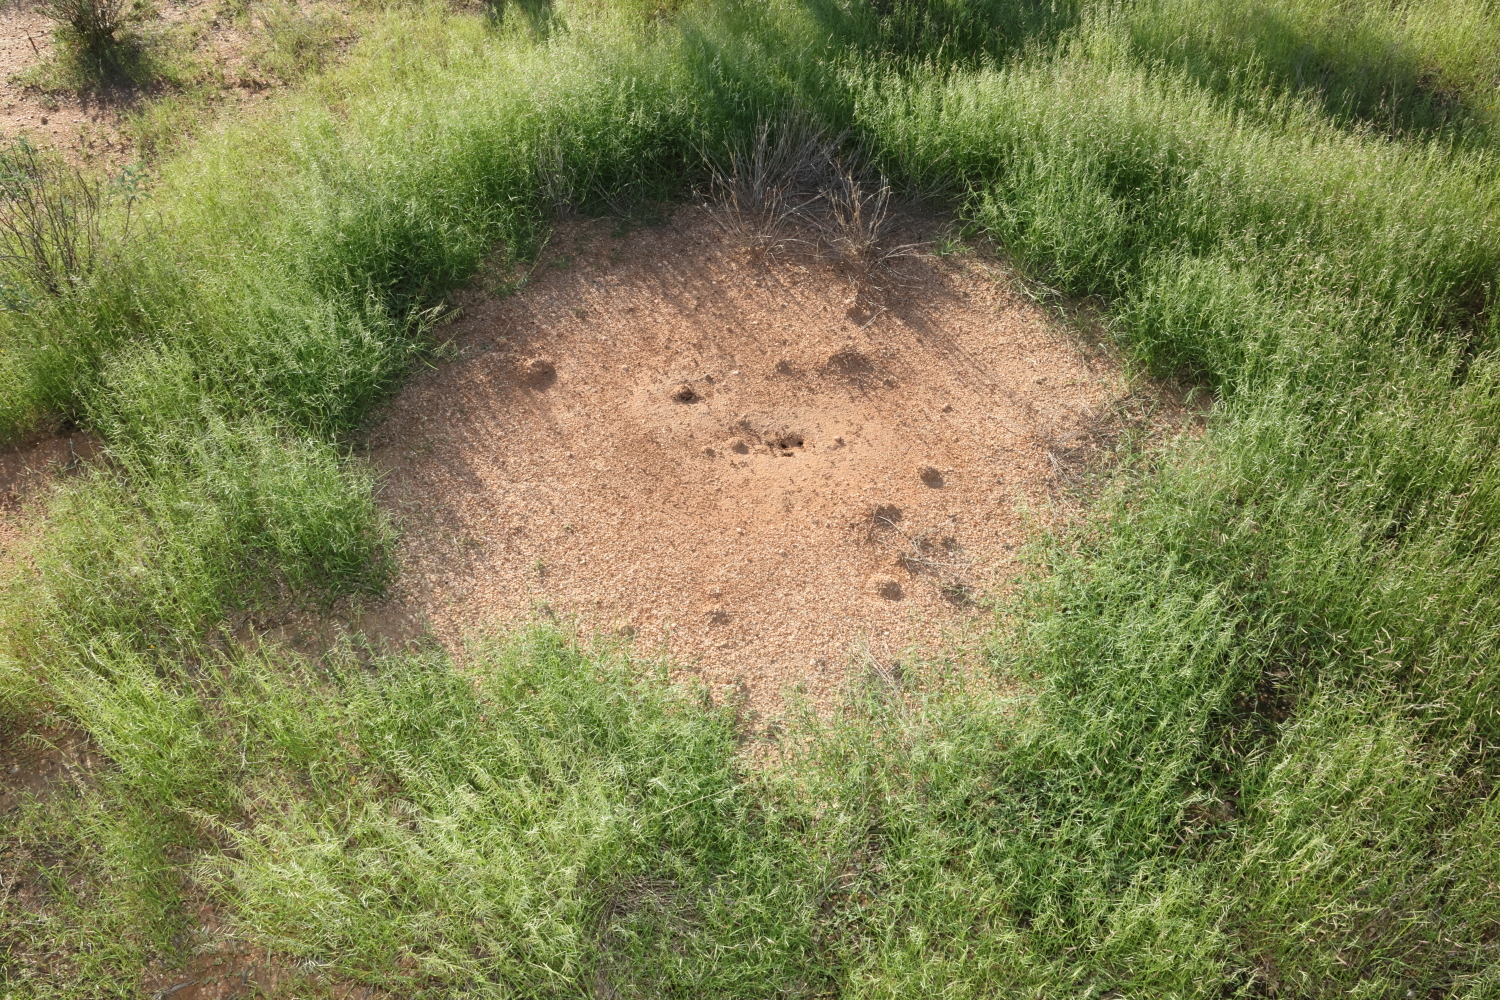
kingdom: Animalia
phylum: Arthropoda
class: Insecta
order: Hymenoptera
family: Formicidae
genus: Pogonomyrmex
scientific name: Pogonomyrmex rugosus
